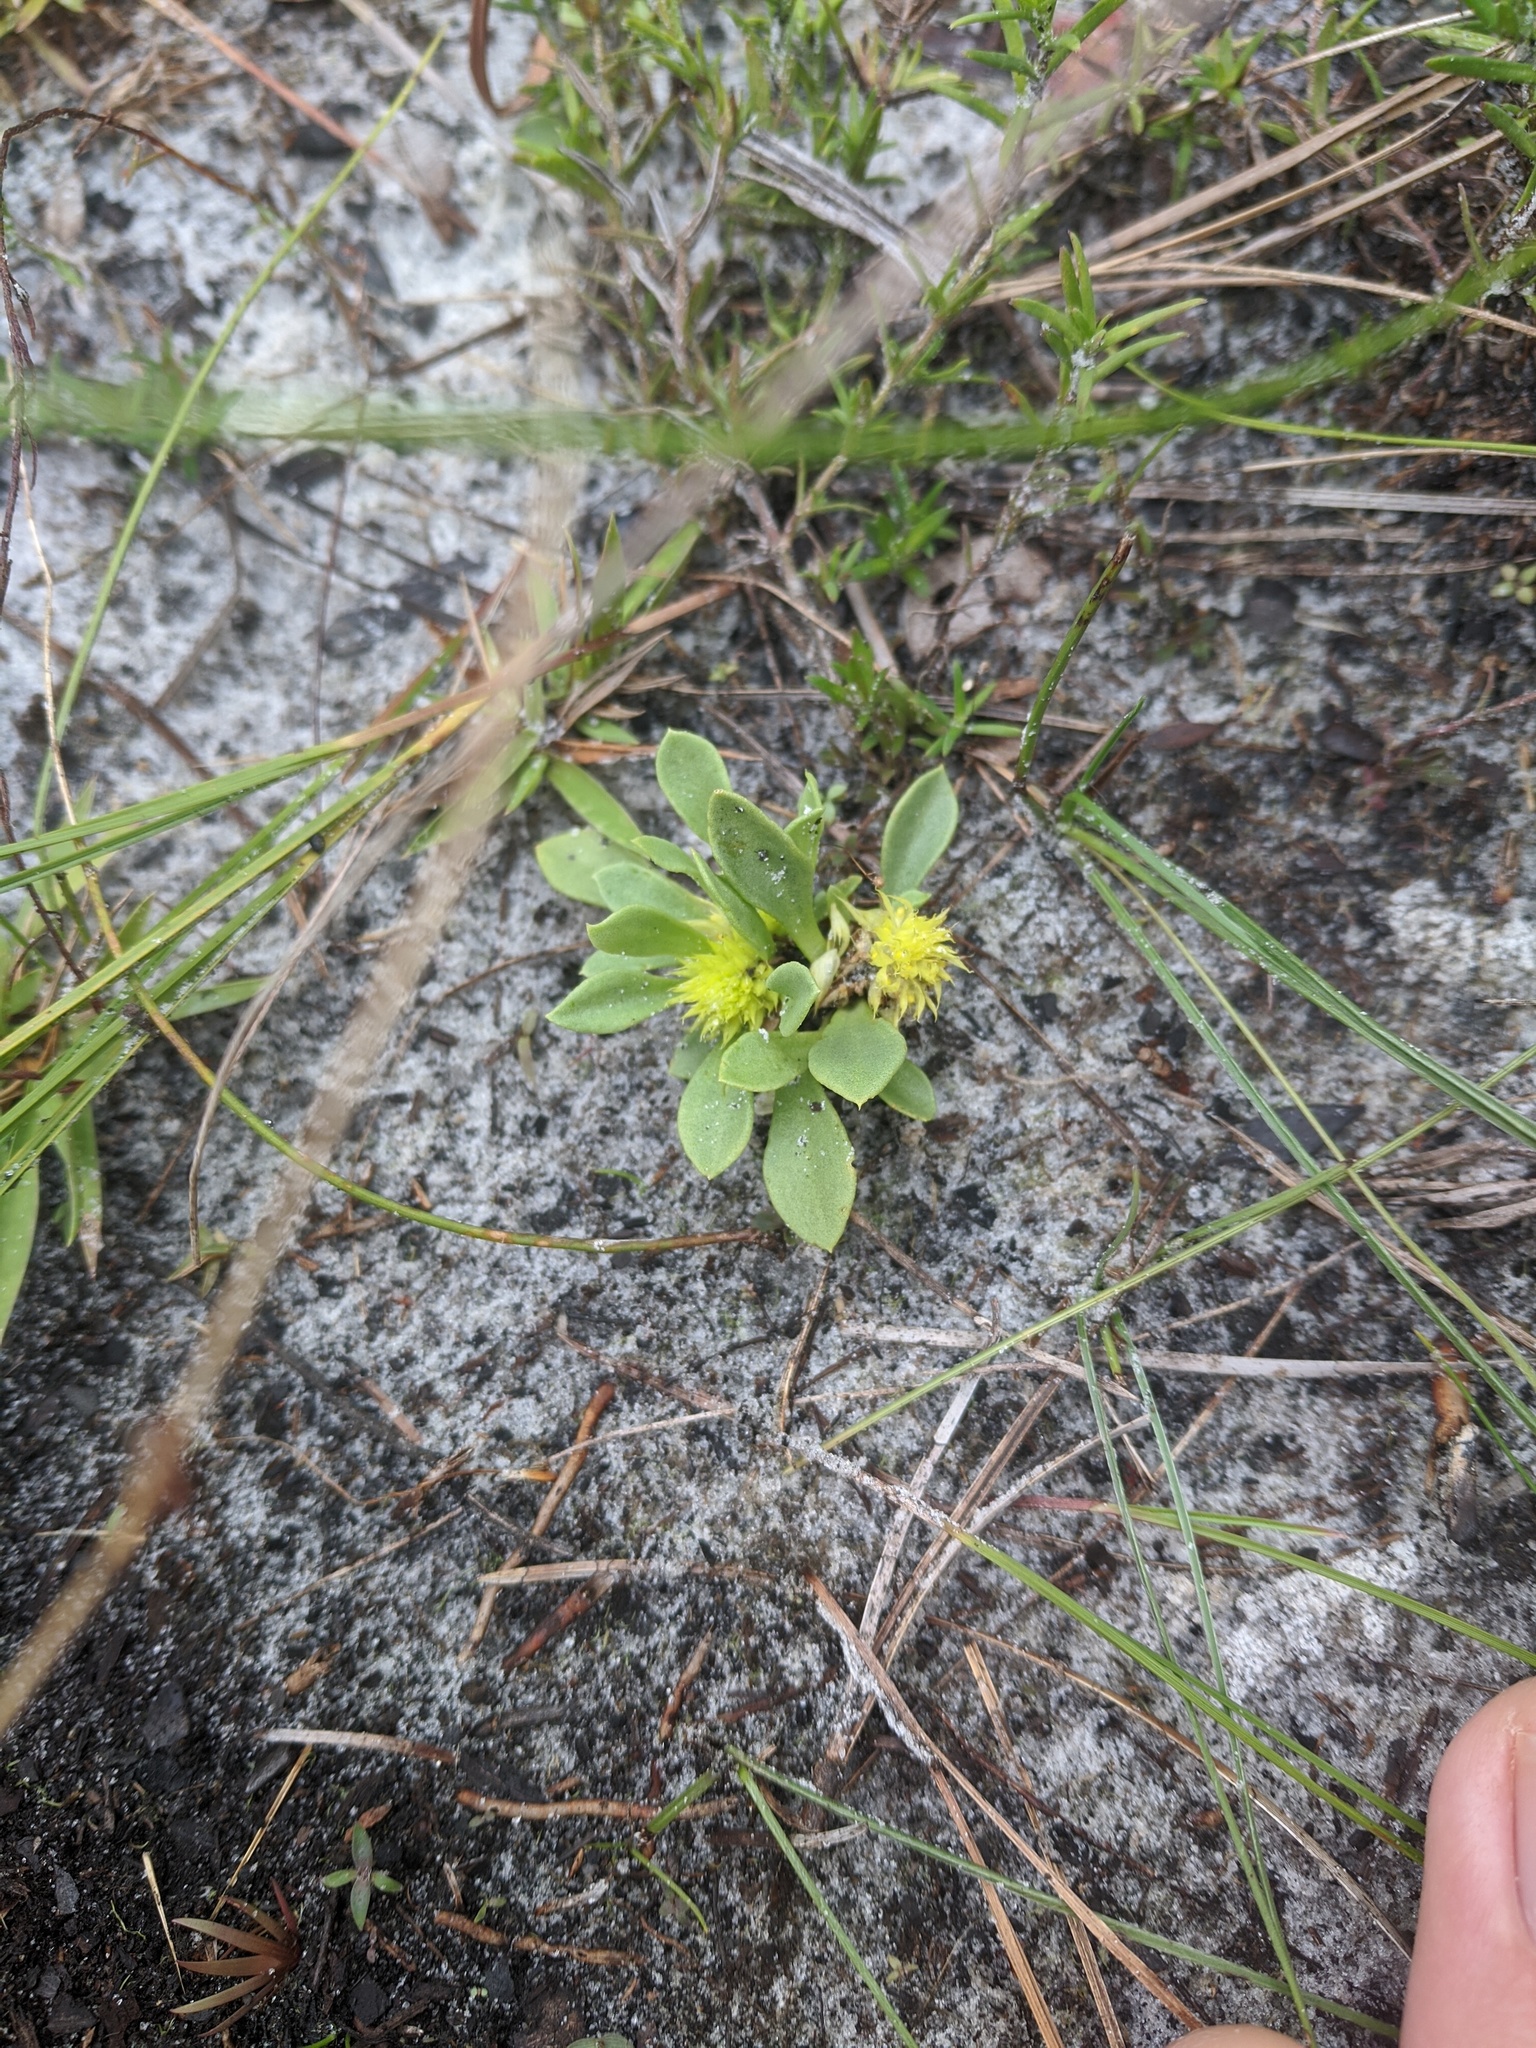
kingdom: Plantae
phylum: Tracheophyta
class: Magnoliopsida
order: Fabales
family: Polygalaceae
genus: Polygala
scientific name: Polygala nana
